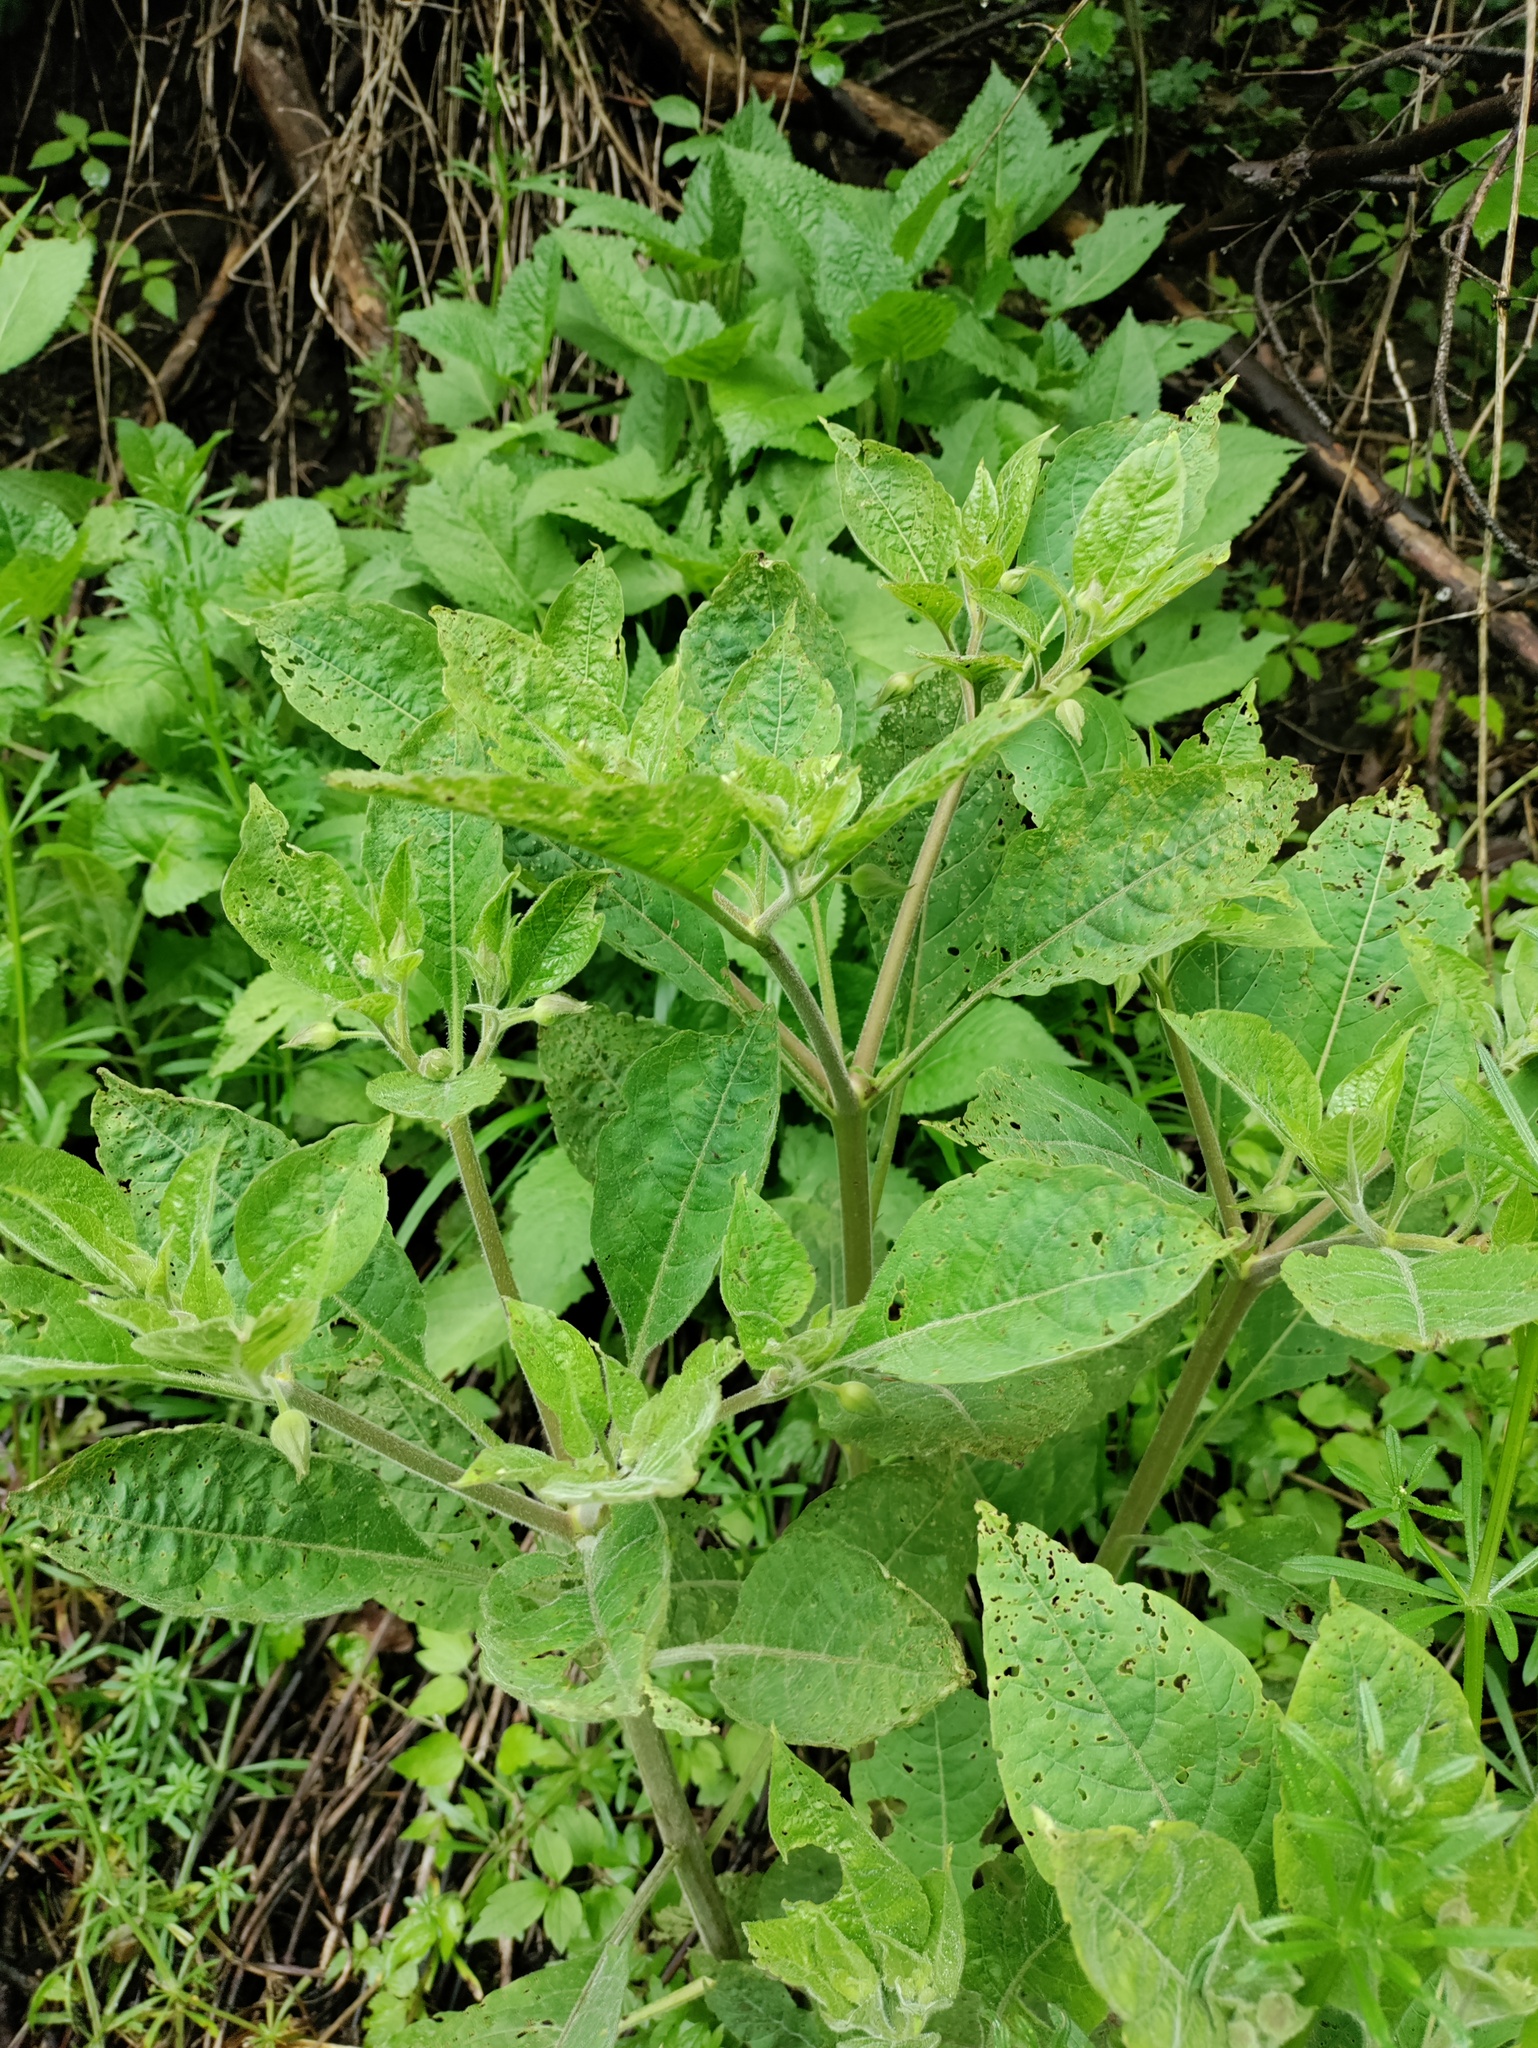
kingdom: Plantae
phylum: Tracheophyta
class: Magnoliopsida
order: Solanales
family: Solanaceae
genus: Atropa
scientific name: Atropa belladonna
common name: Deadly nightshade
